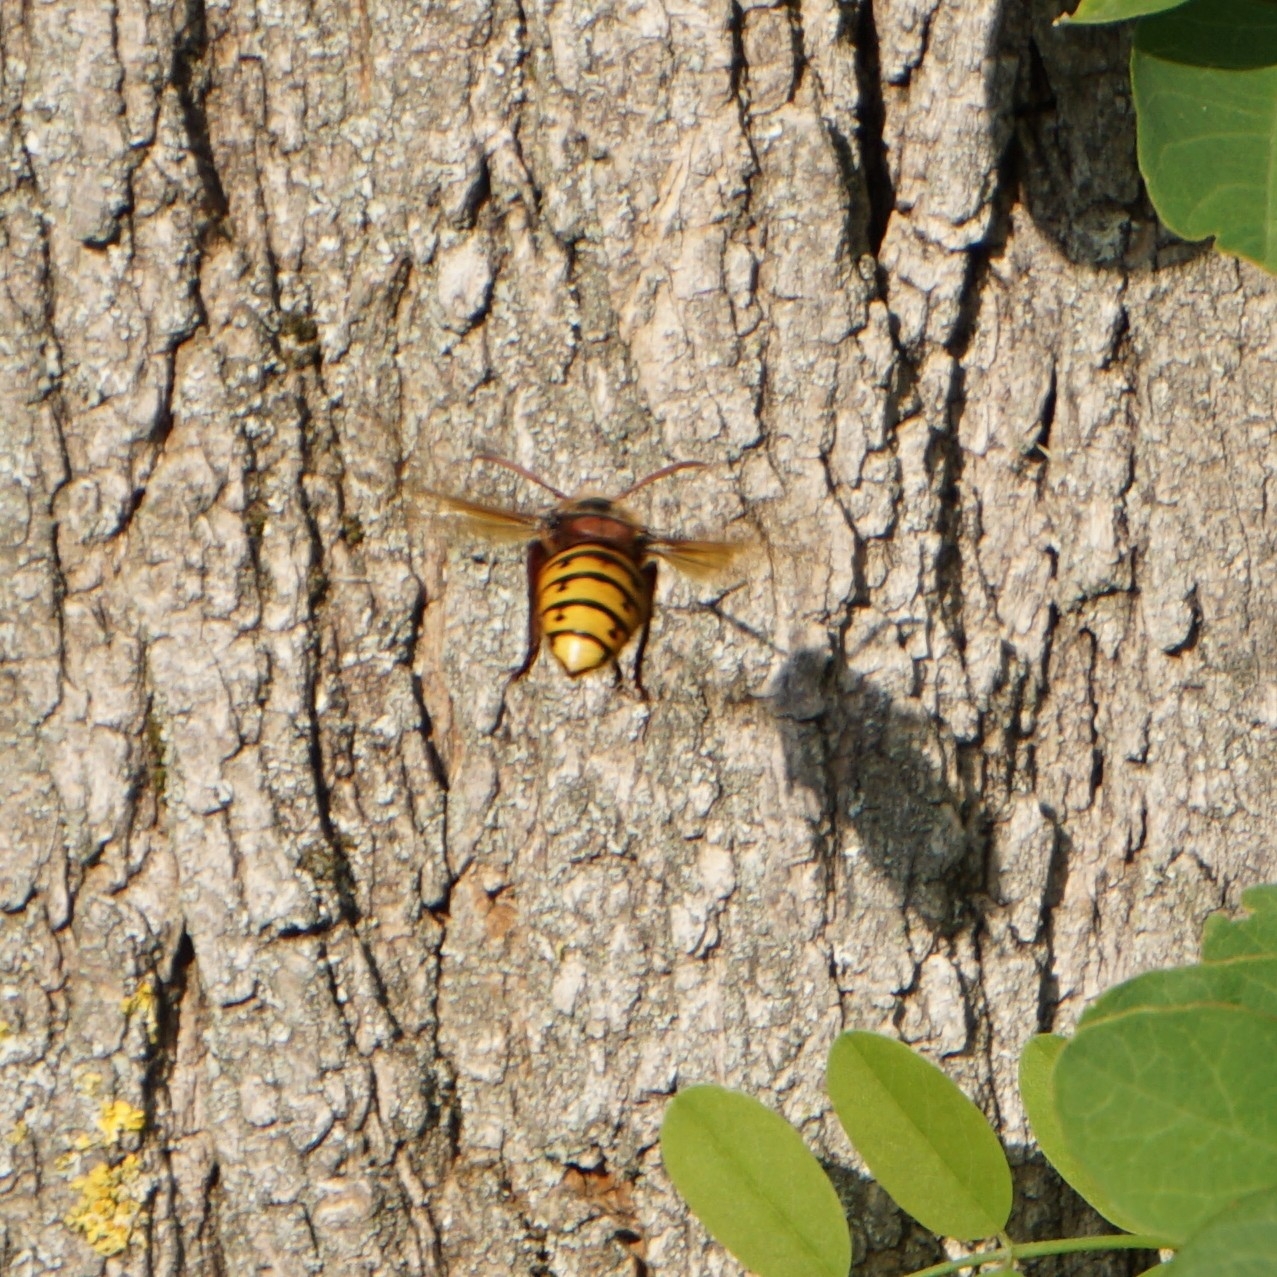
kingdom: Animalia
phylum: Arthropoda
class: Insecta
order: Hymenoptera
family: Vespidae
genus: Vespa
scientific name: Vespa crabro
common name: Hornet
